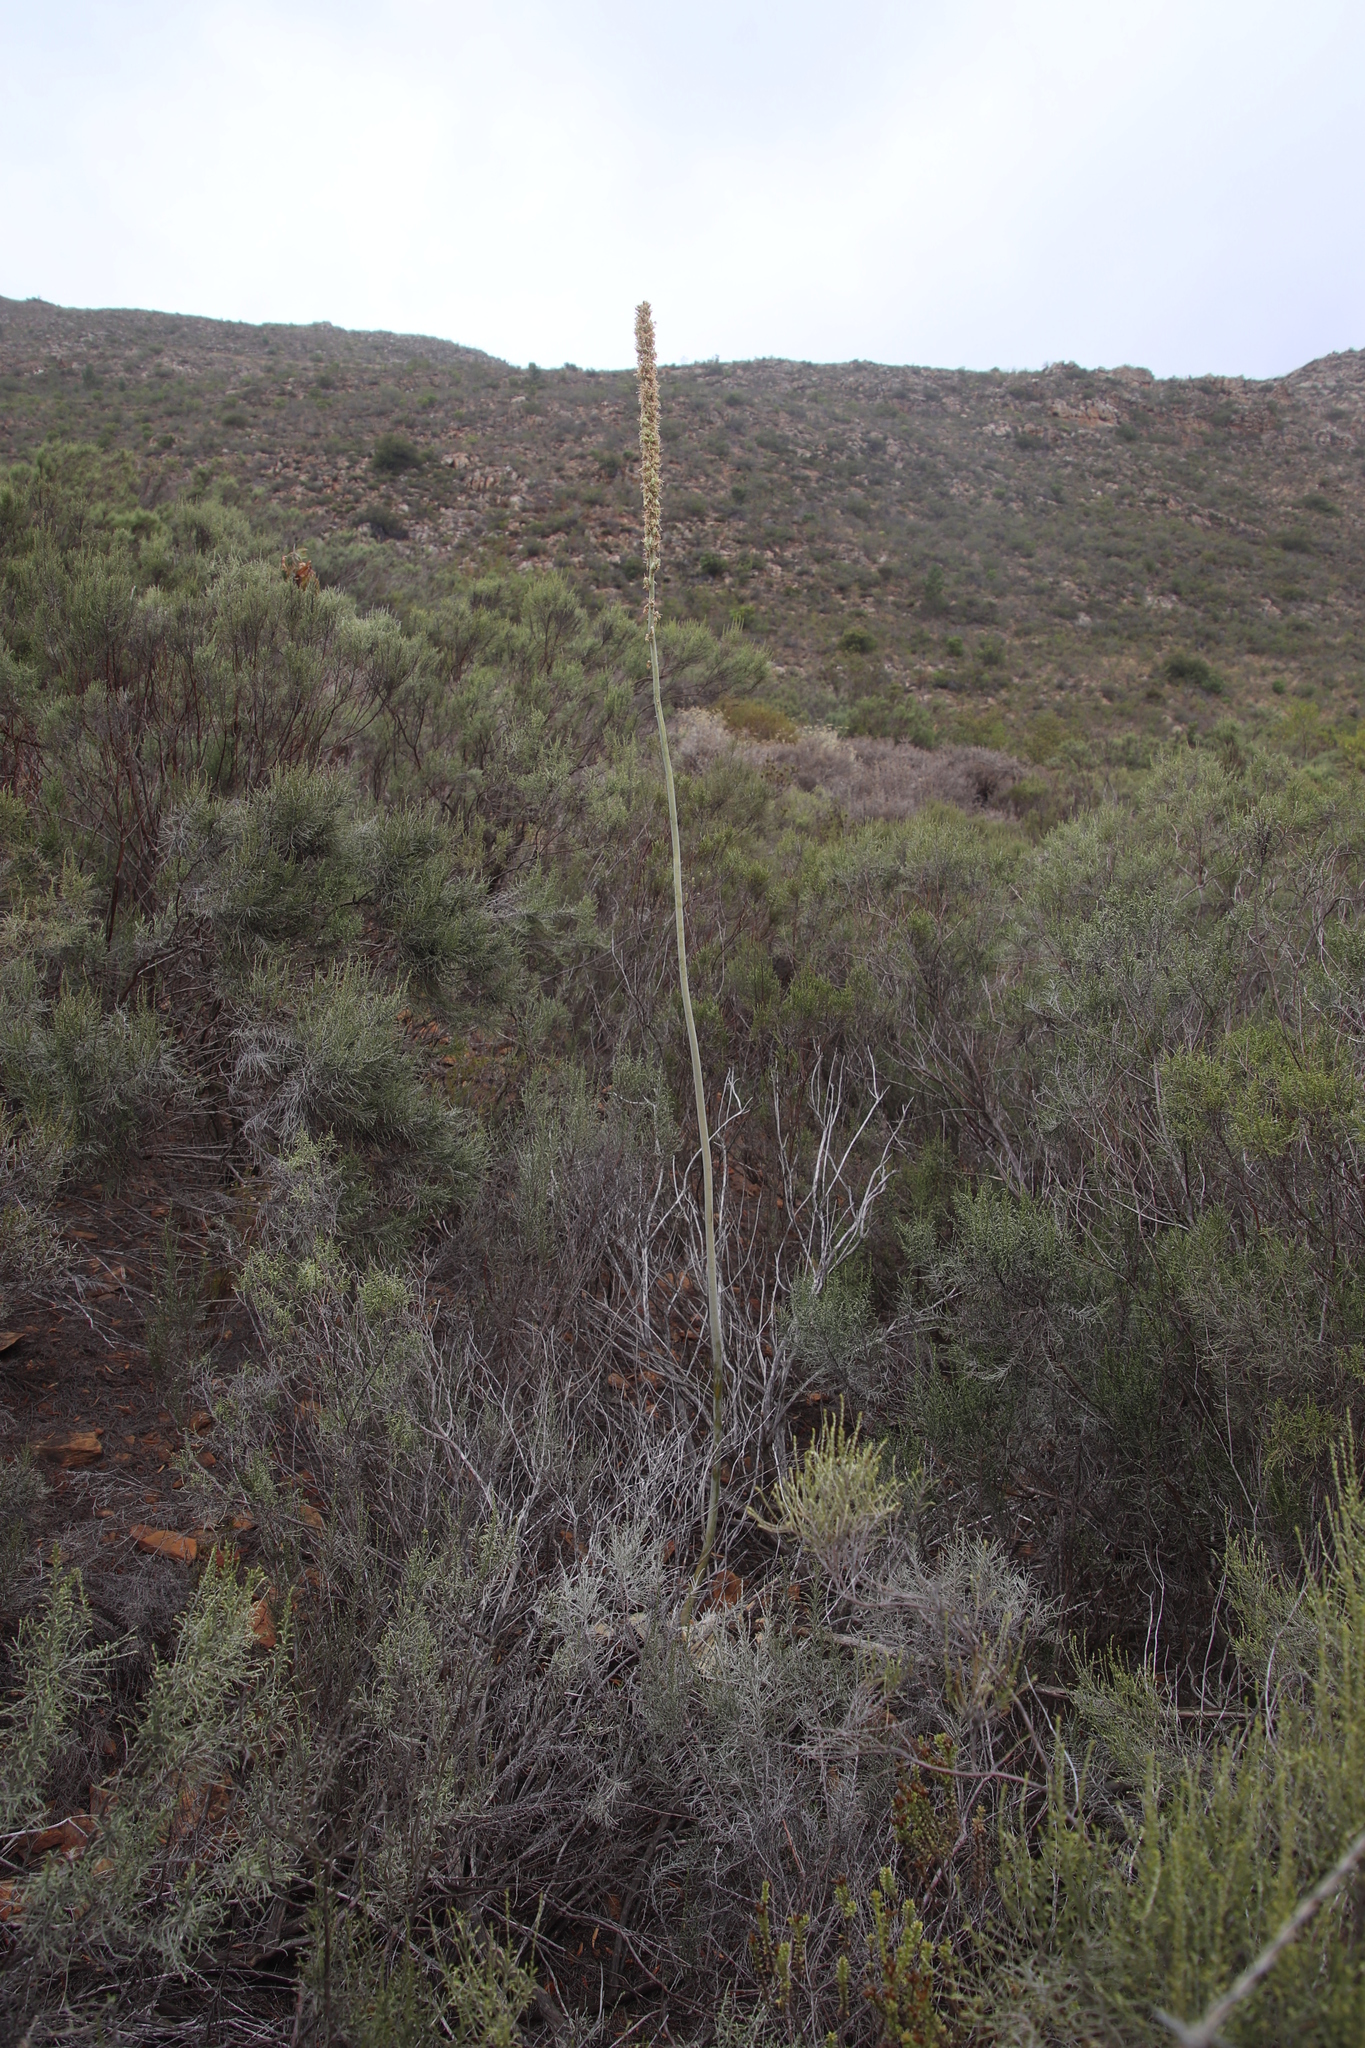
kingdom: Plantae
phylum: Tracheophyta
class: Liliopsida
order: Asparagales
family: Asparagaceae
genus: Drimia
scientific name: Drimia capensis
